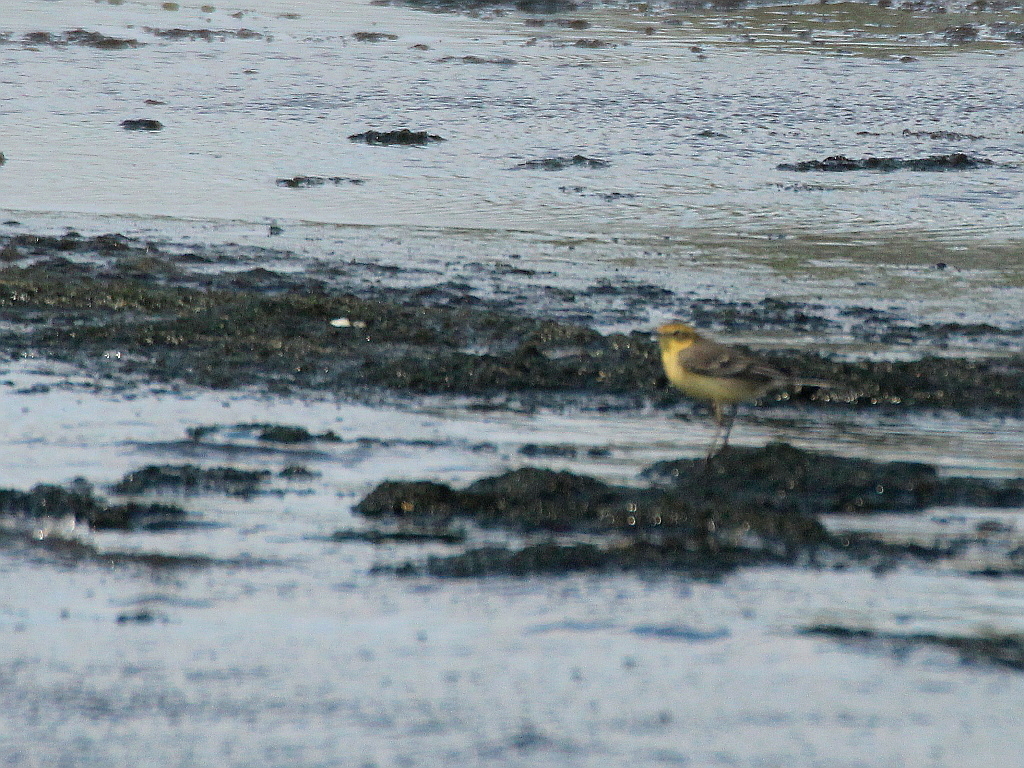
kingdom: Animalia
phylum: Chordata
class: Aves
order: Passeriformes
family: Motacillidae
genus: Motacilla
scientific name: Motacilla citreola
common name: Citrine wagtail
